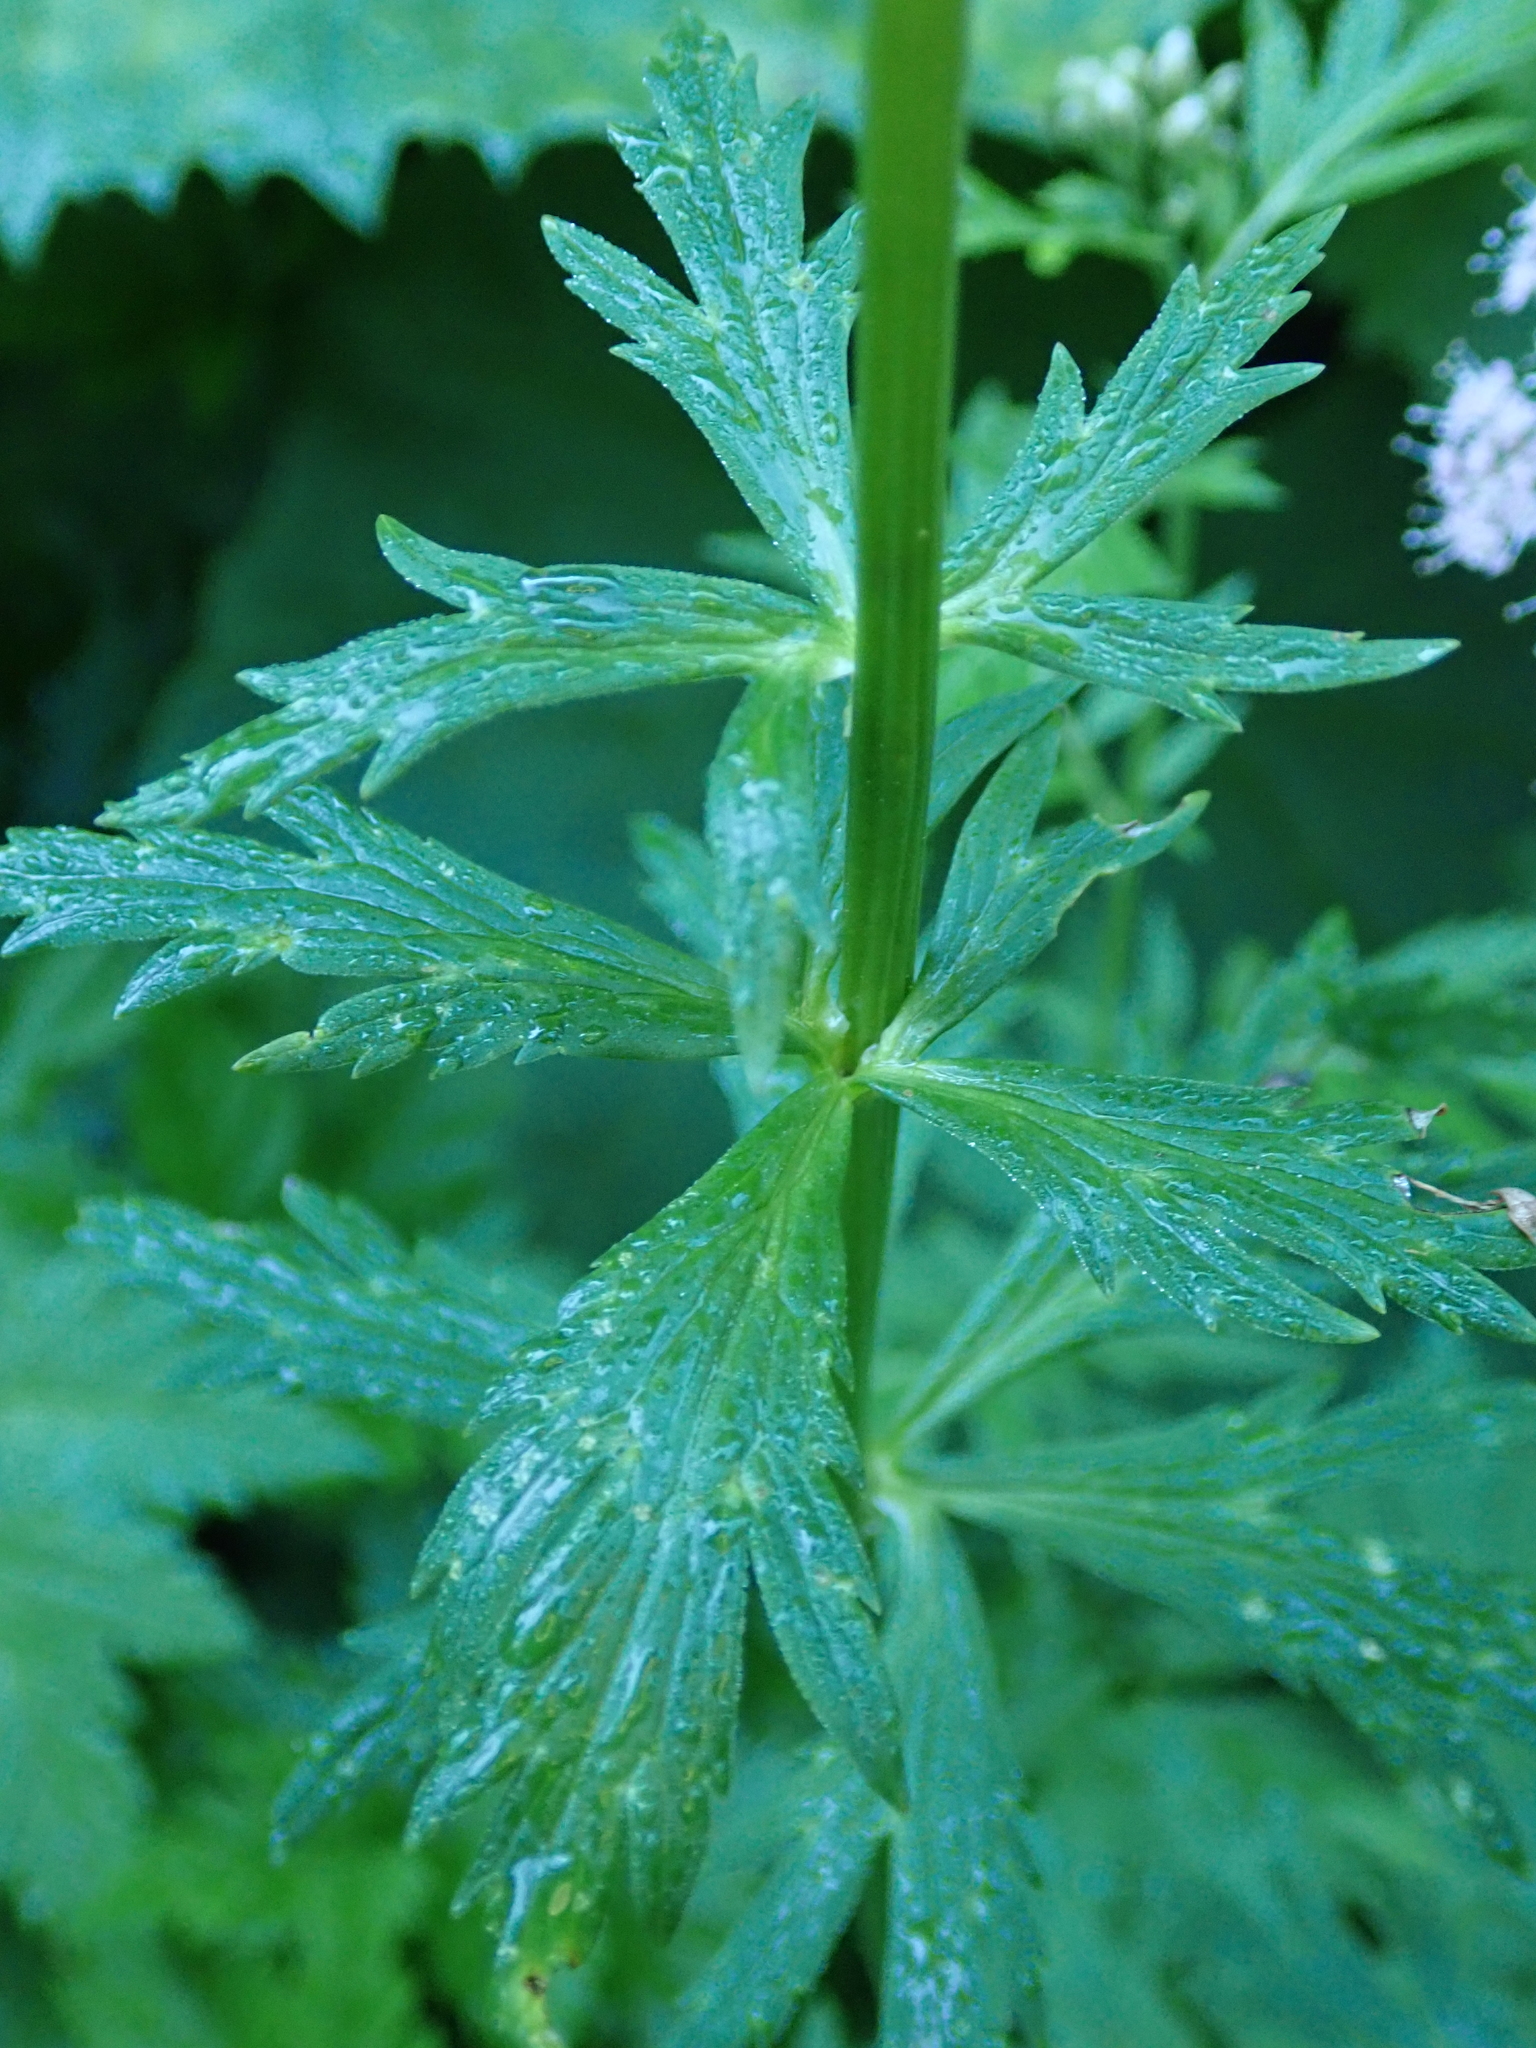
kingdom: Plantae
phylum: Tracheophyta
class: Magnoliopsida
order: Ranunculales
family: Ranunculaceae
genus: Trollius
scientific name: Trollius europaeus
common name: European globeflower
